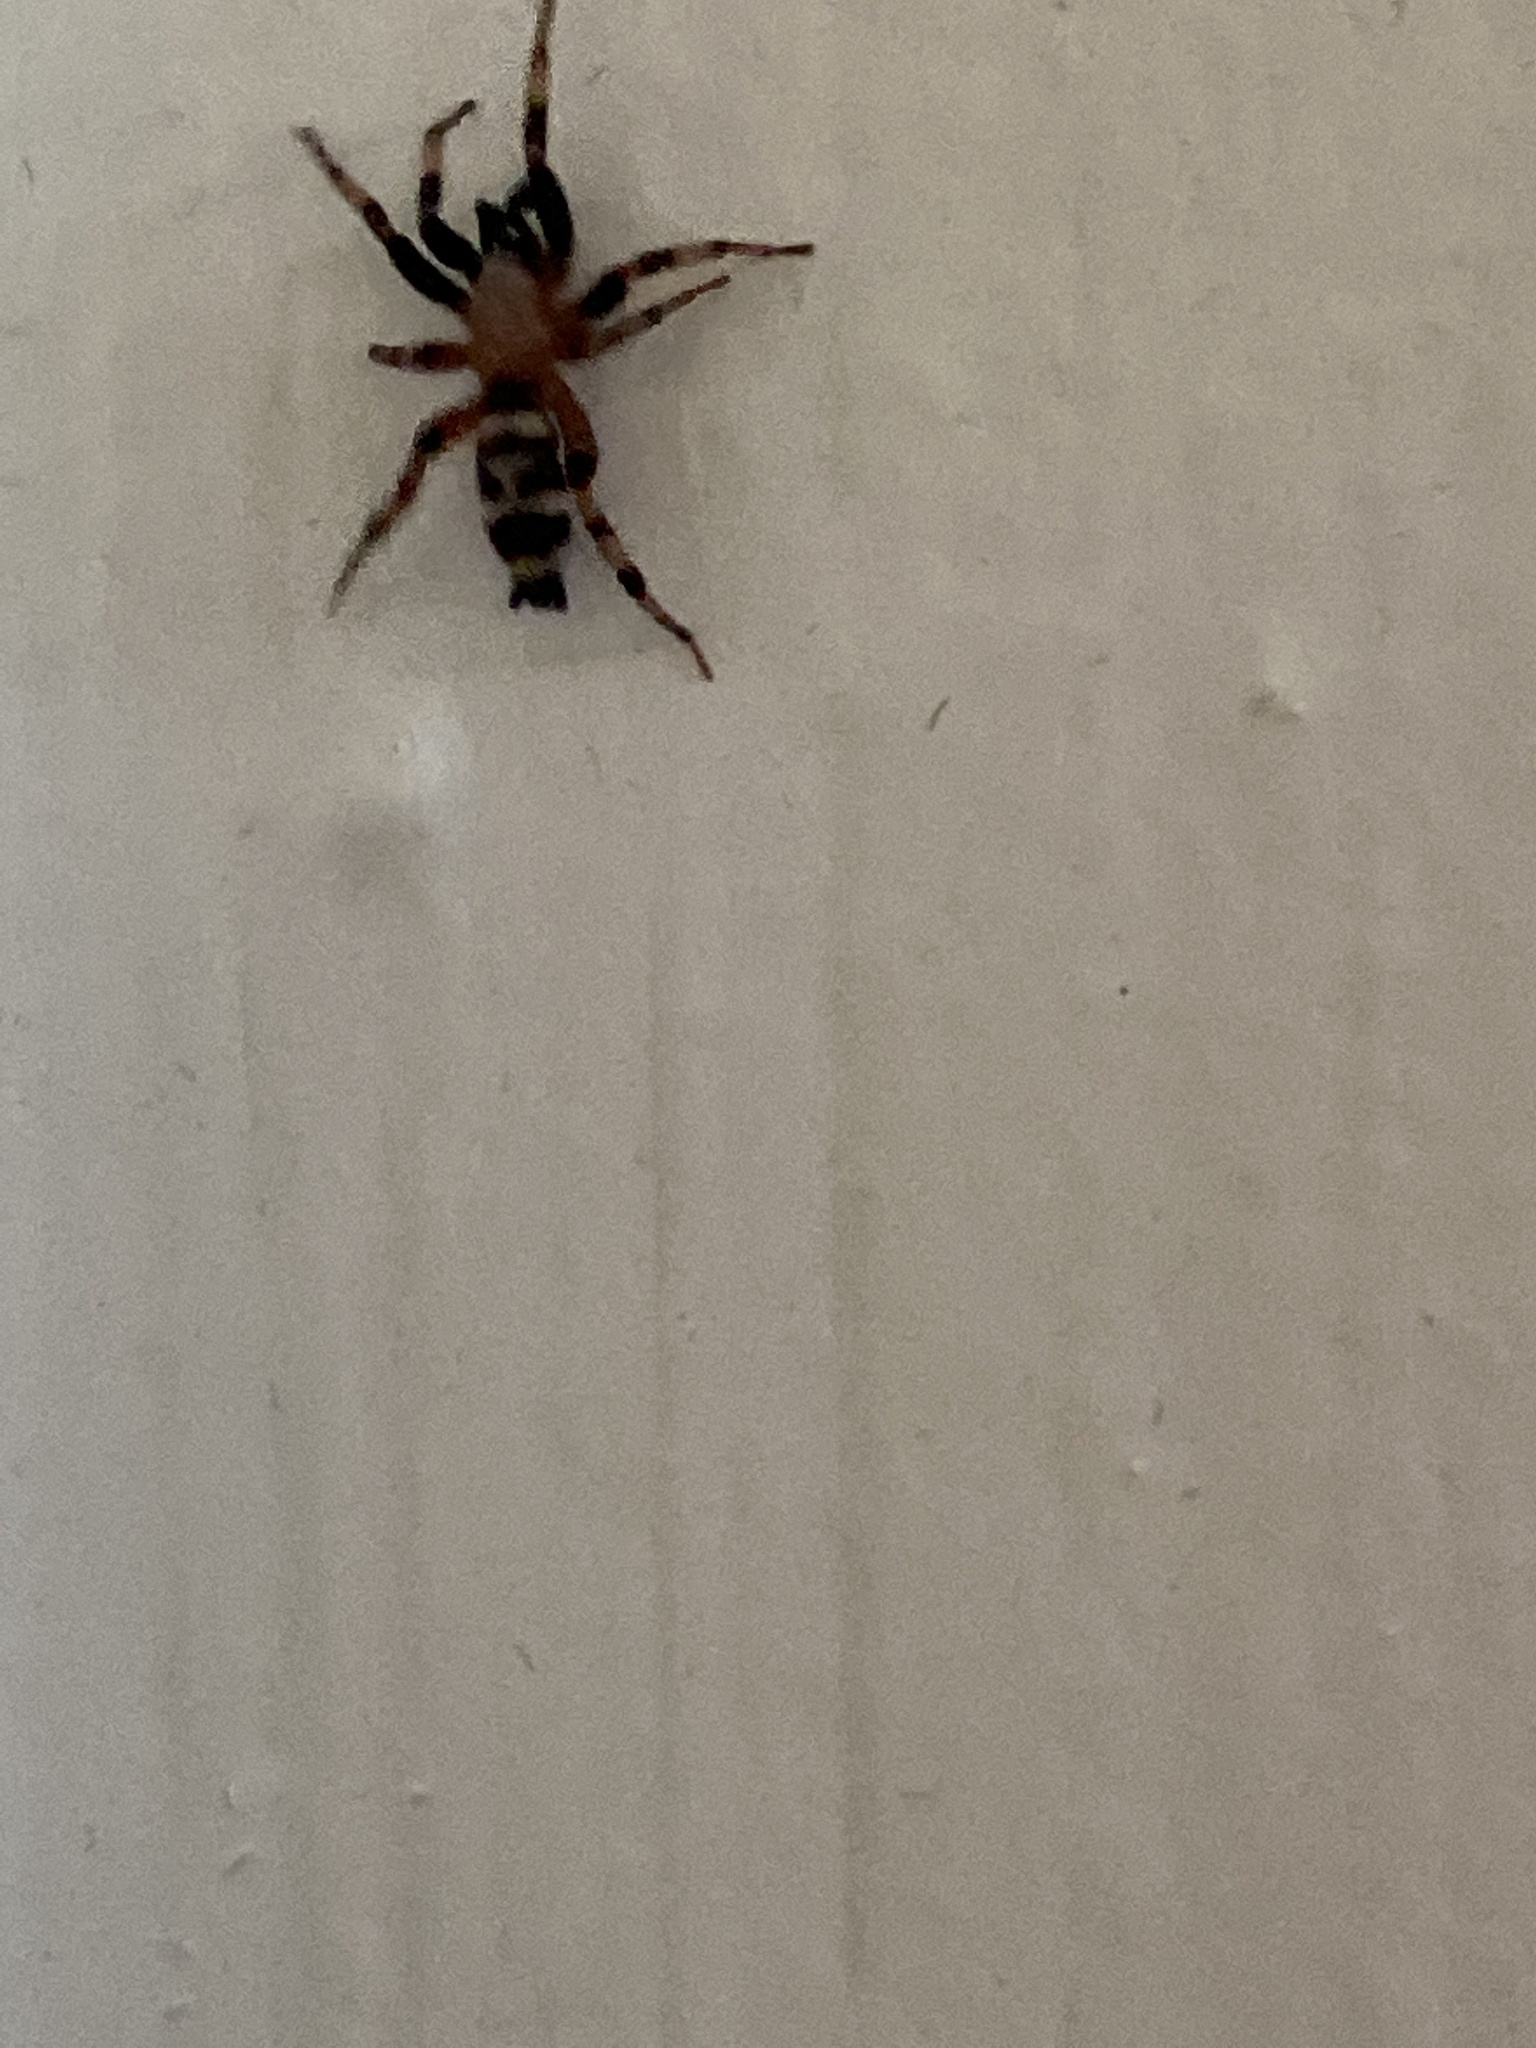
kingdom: Animalia
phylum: Arthropoda
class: Arachnida
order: Araneae
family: Gnaphosidae
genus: Sergiolus
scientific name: Sergiolus capulatus
